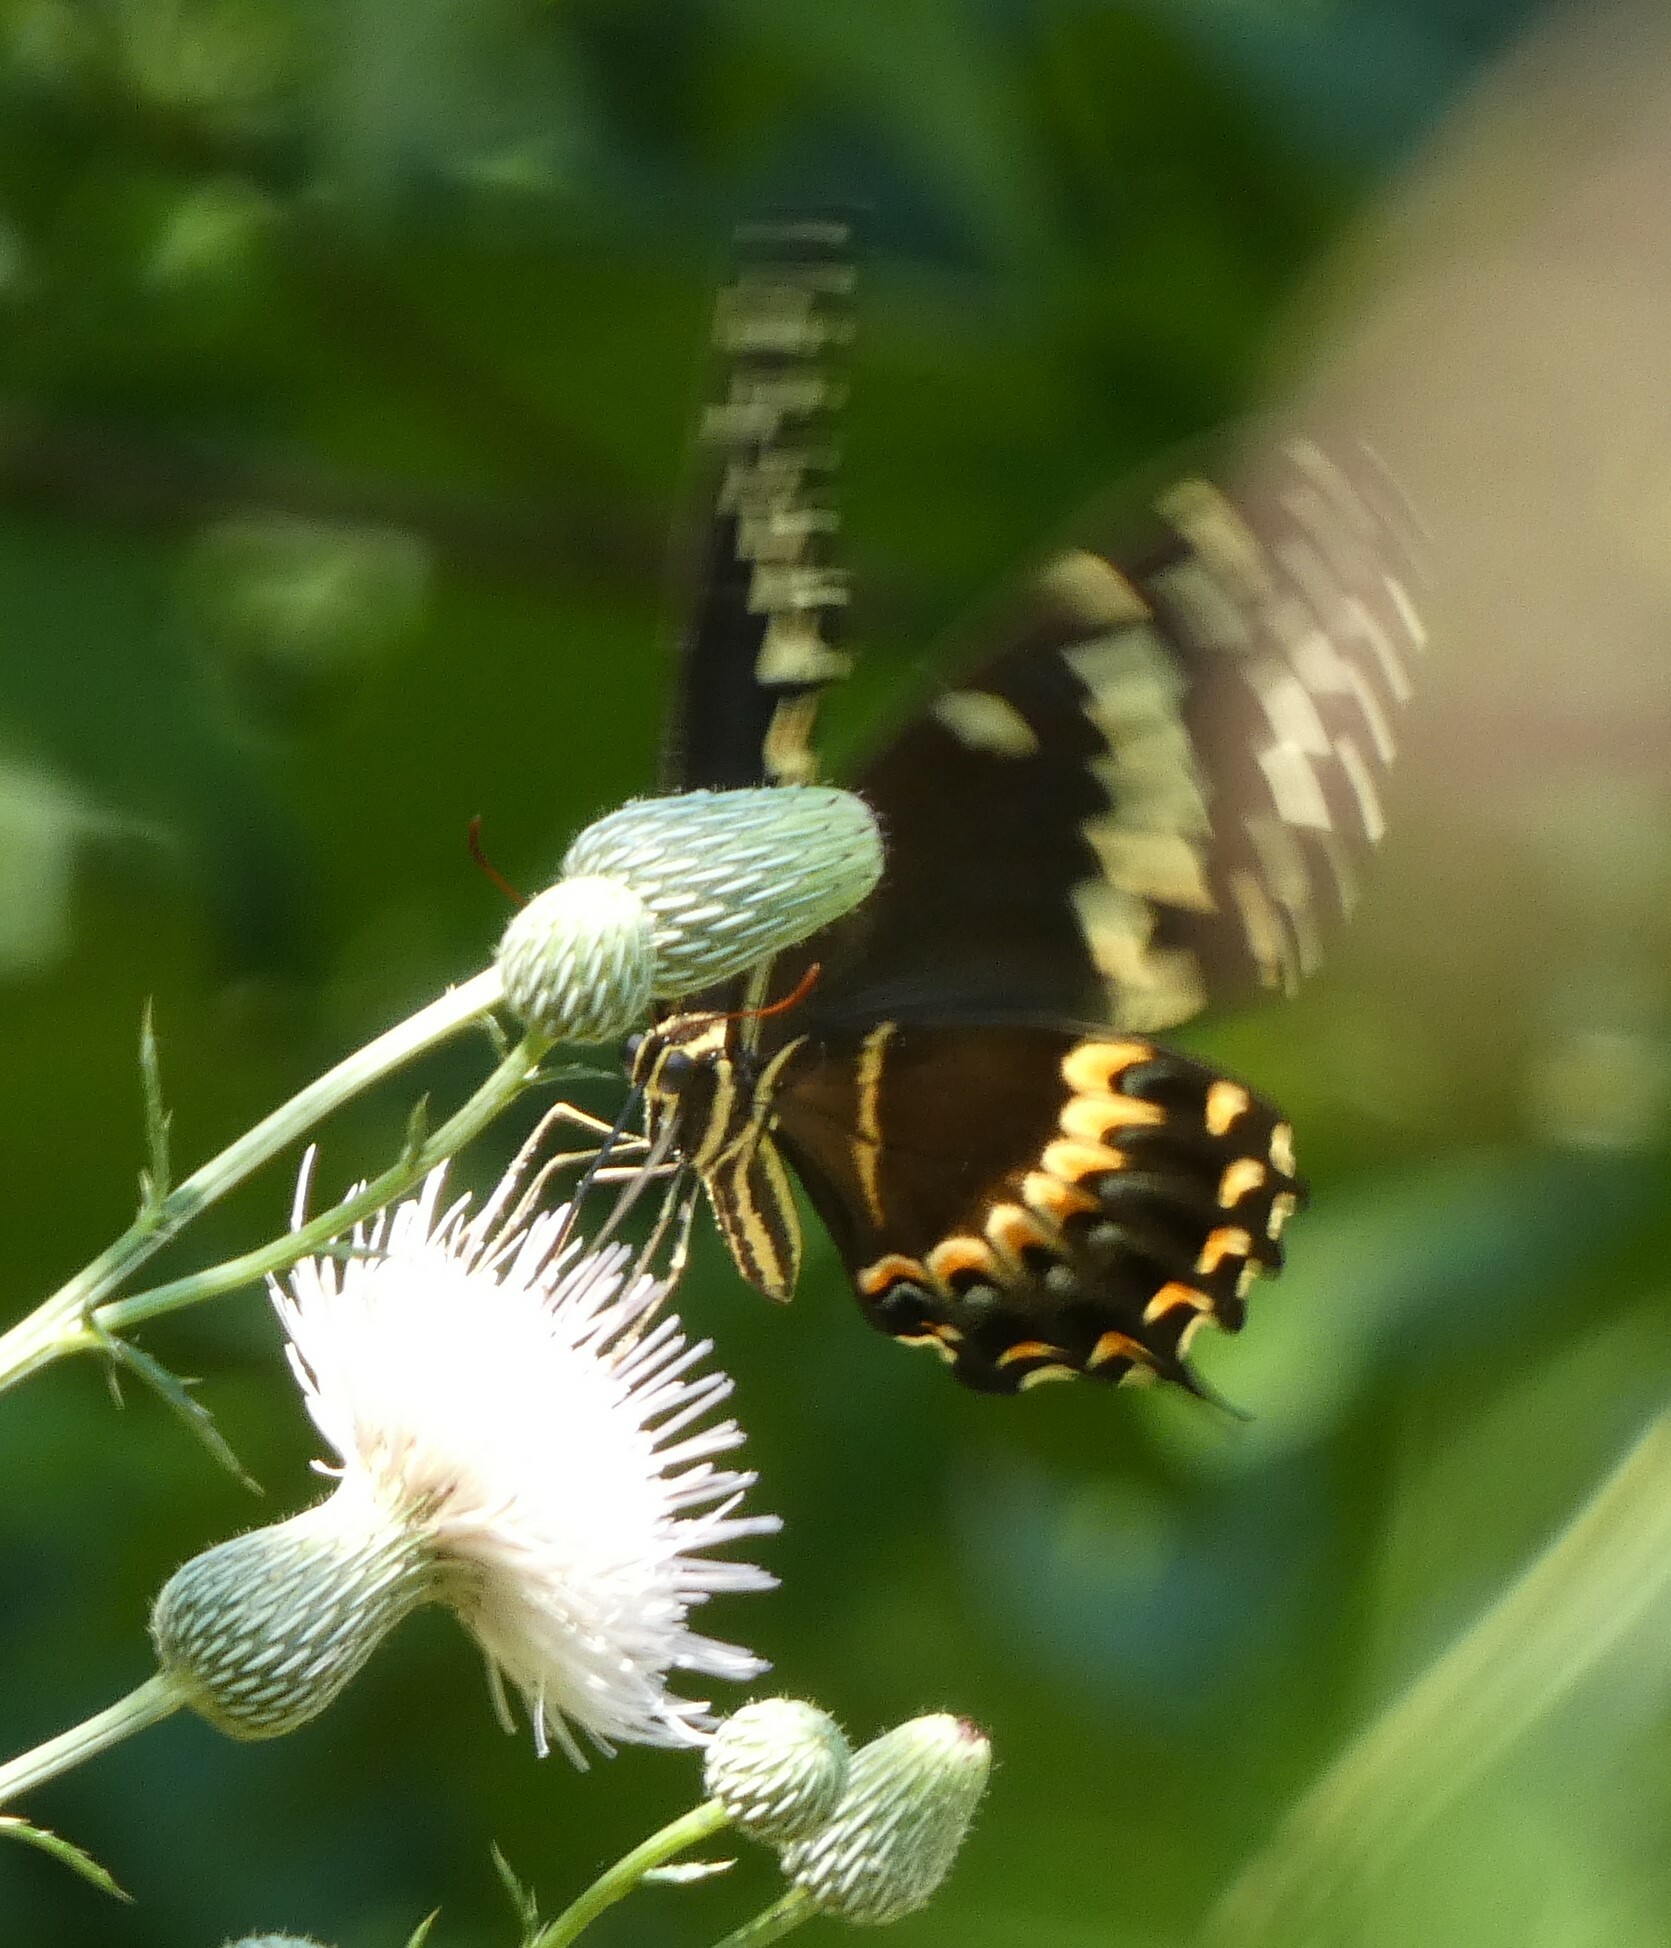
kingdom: Animalia
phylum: Arthropoda
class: Insecta
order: Lepidoptera
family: Papilionidae
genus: Papilio
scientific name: Papilio palamedes
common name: Palamedes swallowtail
